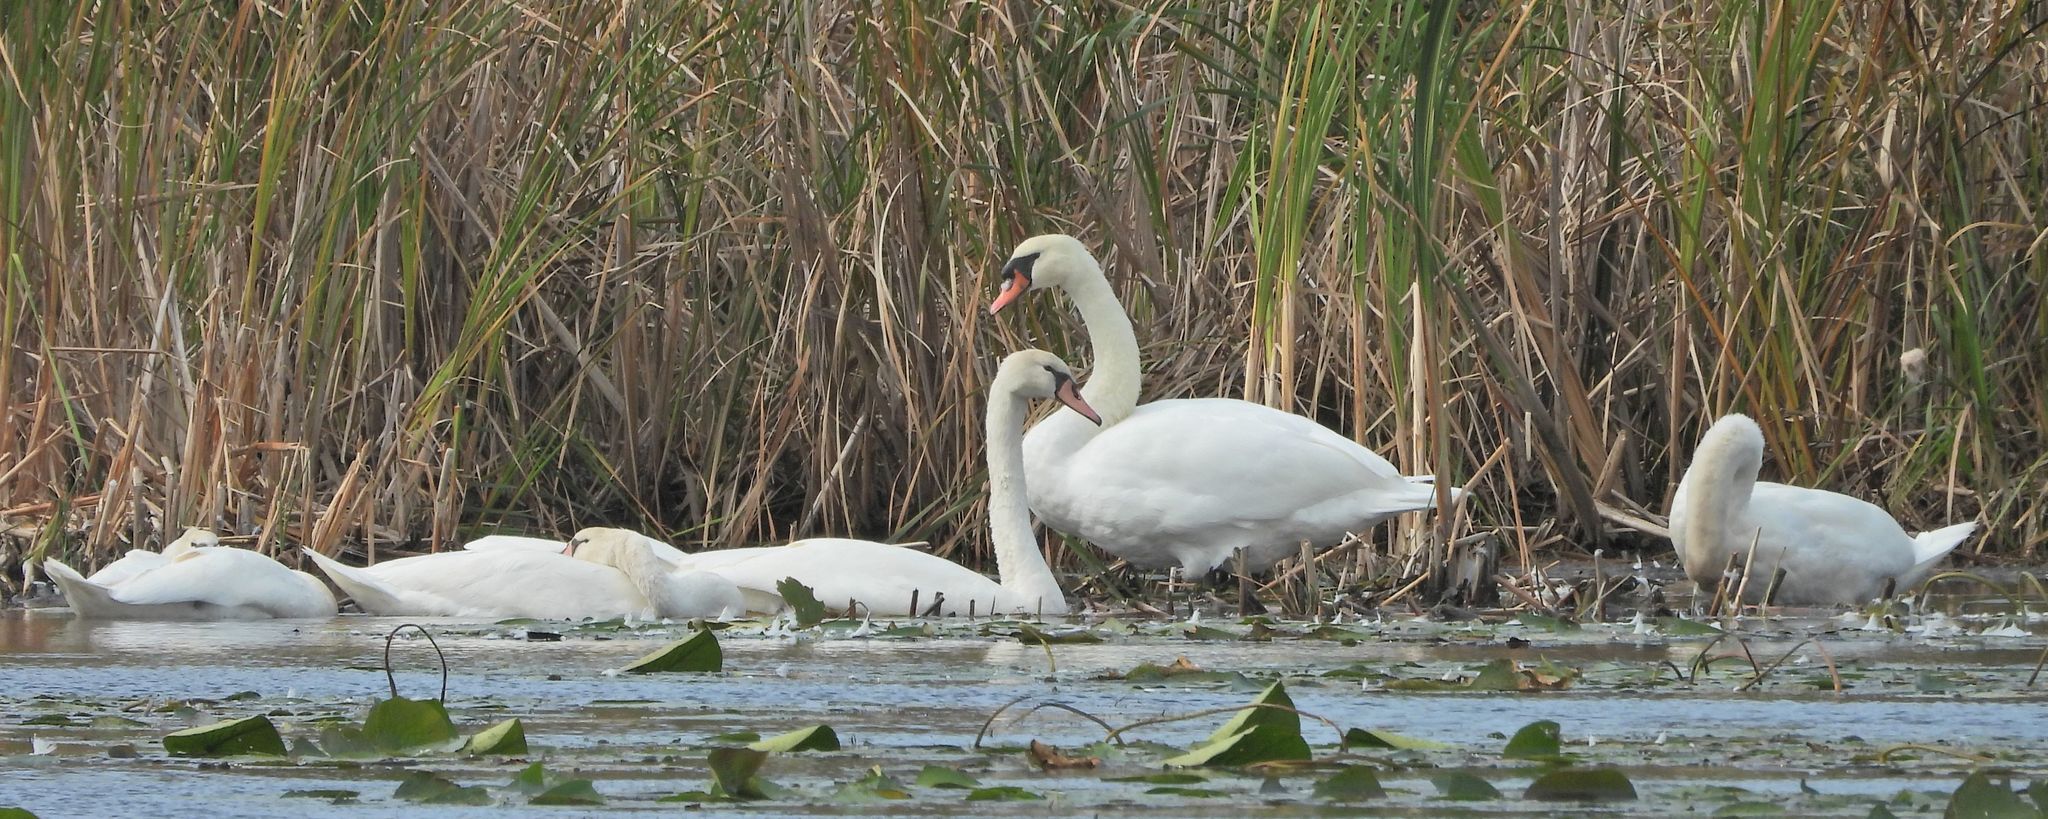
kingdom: Animalia
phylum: Chordata
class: Aves
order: Anseriformes
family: Anatidae
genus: Cygnus
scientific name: Cygnus olor
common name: Mute swan
